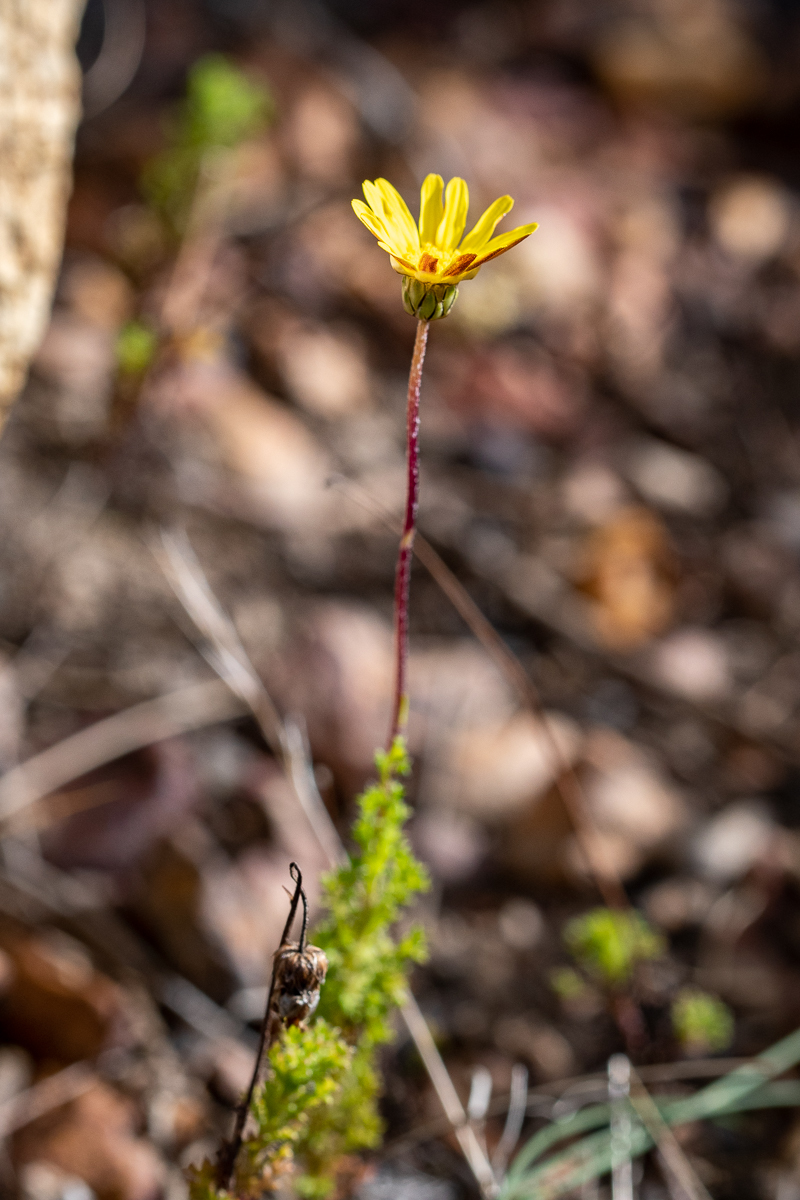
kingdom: Plantae
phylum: Tracheophyta
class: Magnoliopsida
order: Asterales
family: Asteraceae
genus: Ursinia
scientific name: Ursinia dentata
